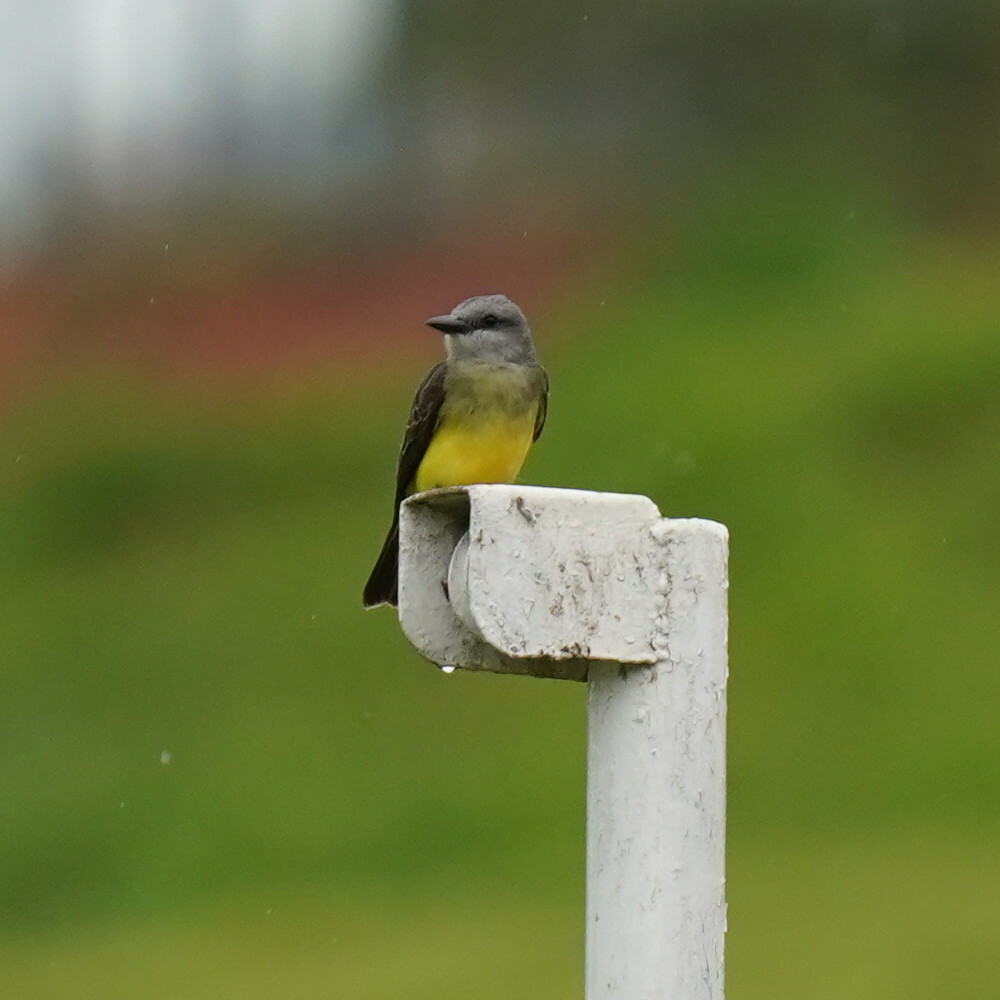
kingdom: Animalia
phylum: Chordata
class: Aves
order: Passeriformes
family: Tyrannidae
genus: Tyrannus
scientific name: Tyrannus melancholicus
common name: Tropical kingbird
